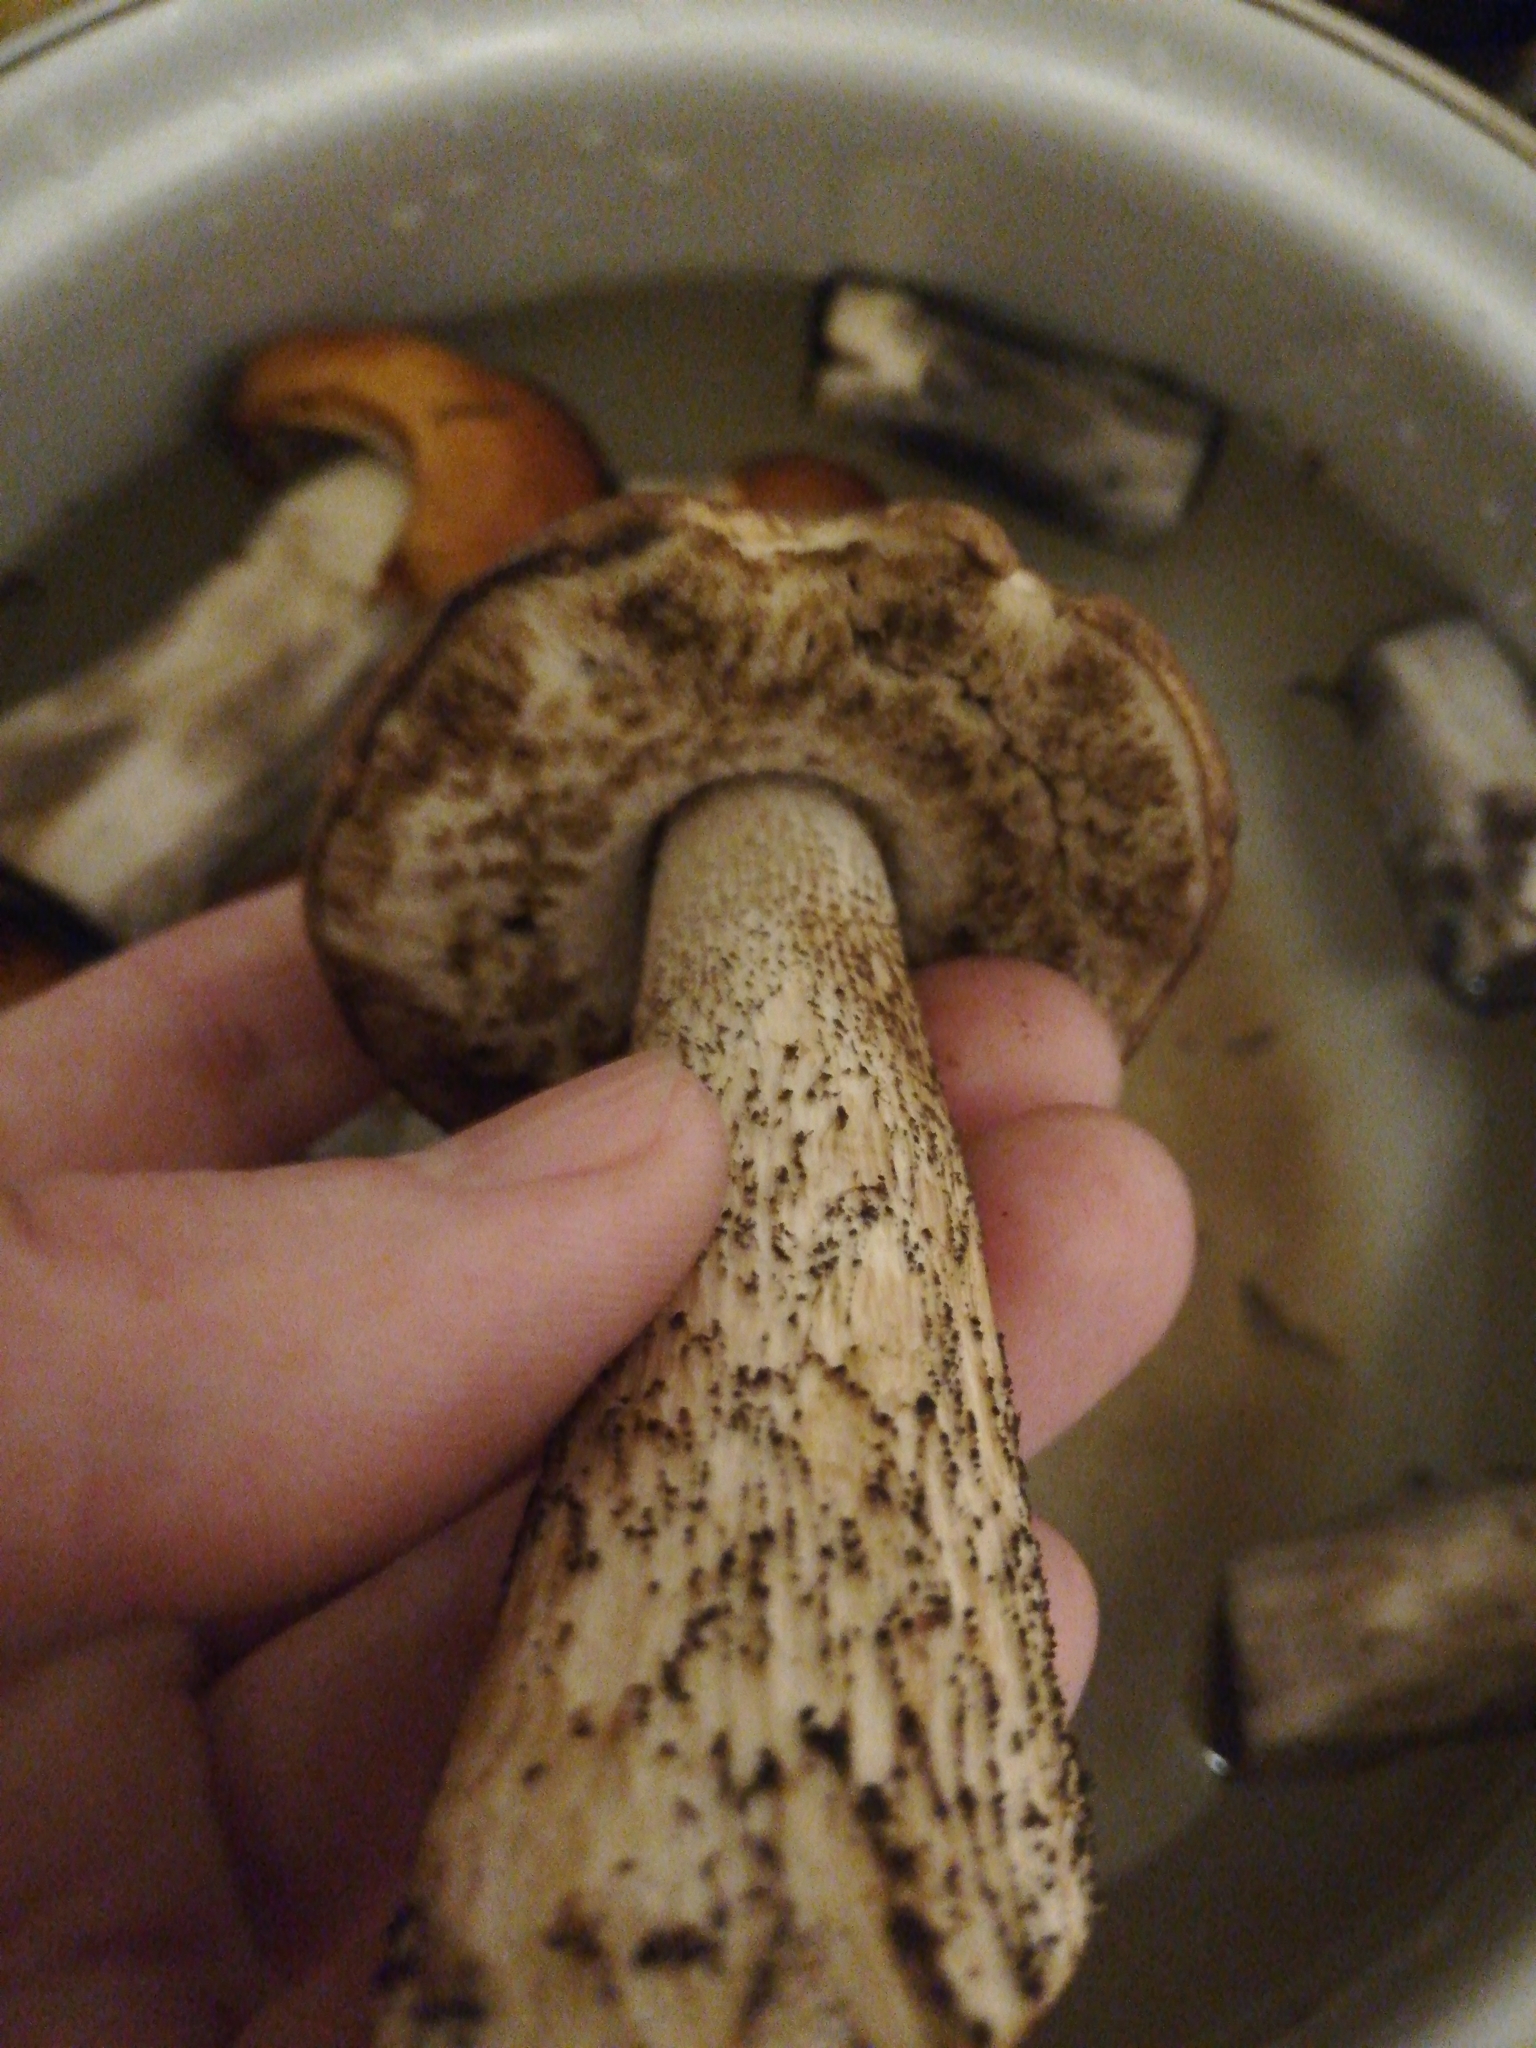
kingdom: Fungi
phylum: Basidiomycota
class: Agaricomycetes
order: Boletales
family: Boletaceae
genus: Leccinum
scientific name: Leccinum scabrum
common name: Blushing bolete
